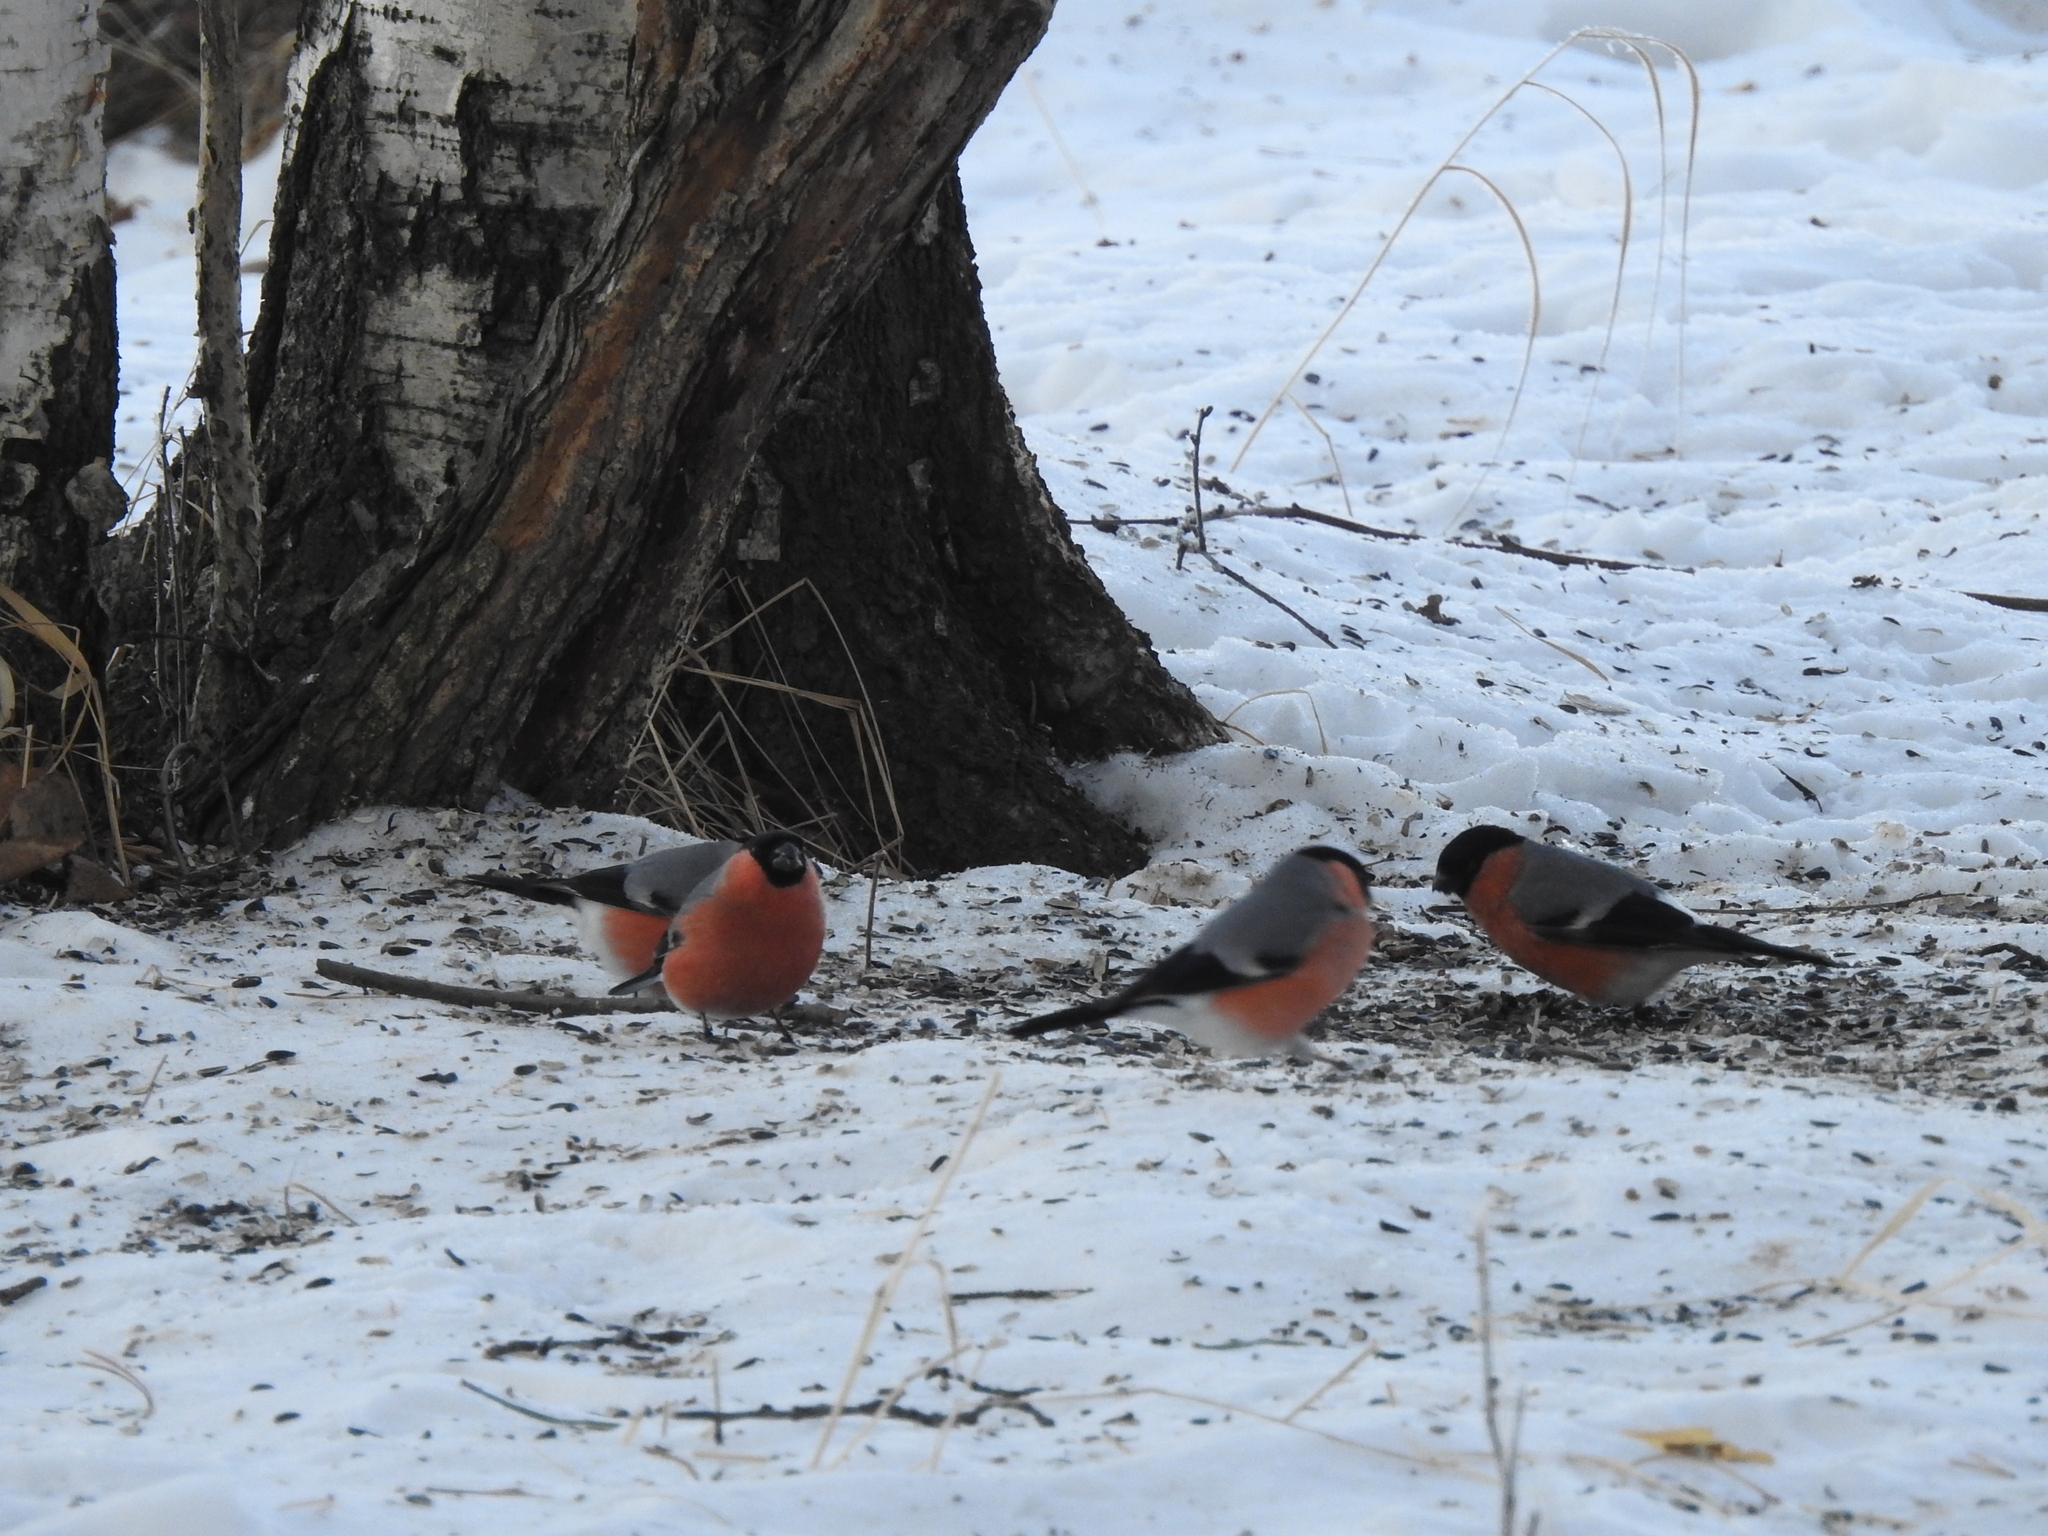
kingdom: Animalia
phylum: Chordata
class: Aves
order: Passeriformes
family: Fringillidae
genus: Pyrrhula
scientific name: Pyrrhula pyrrhula
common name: Eurasian bullfinch
